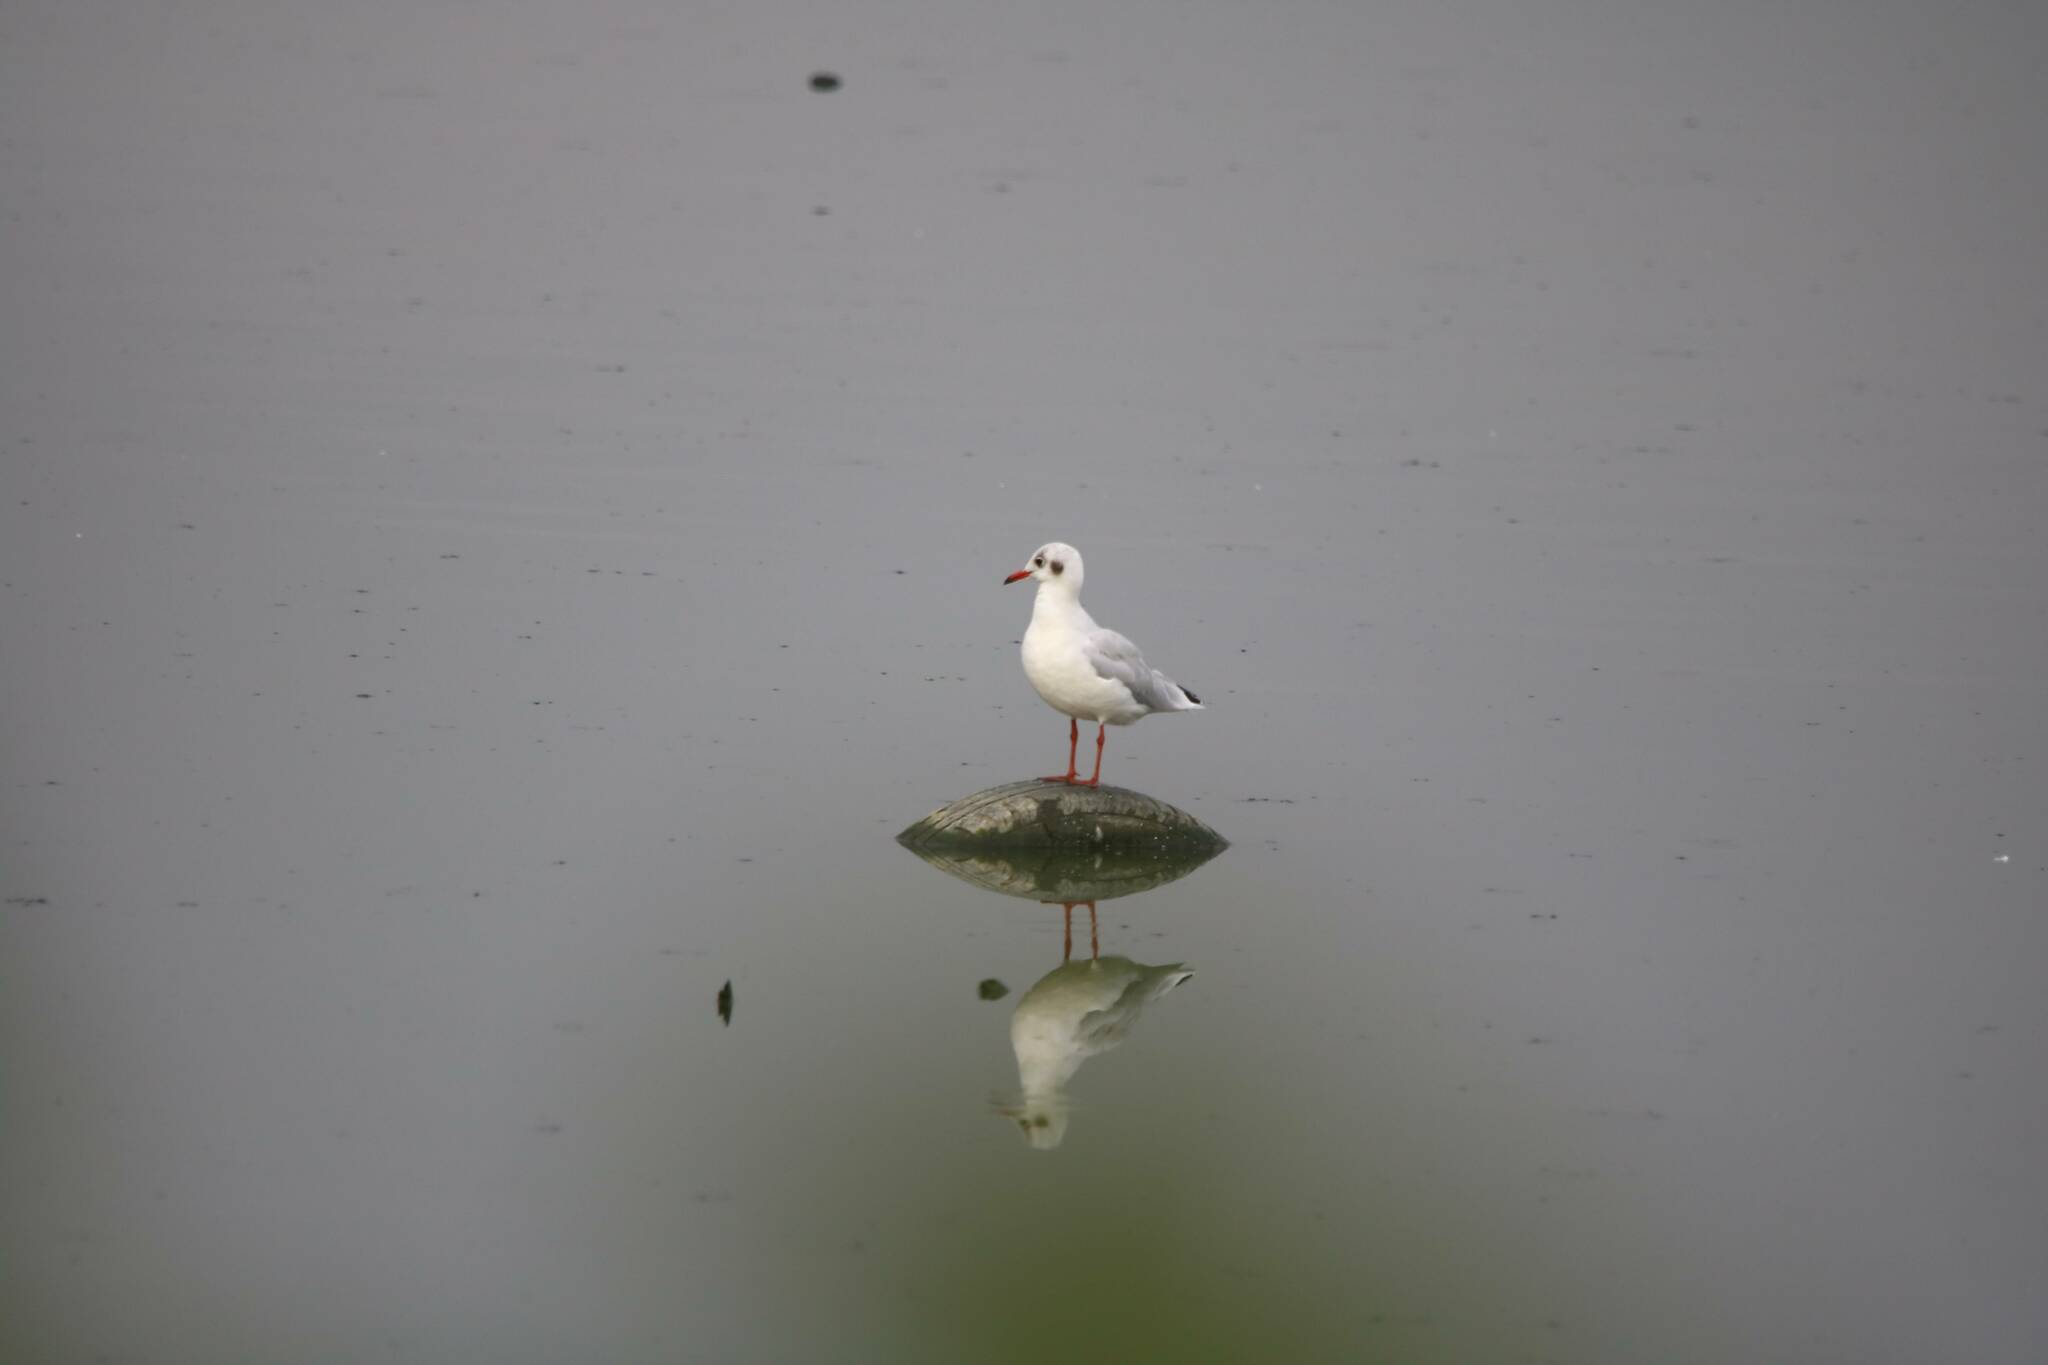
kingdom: Animalia
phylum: Chordata
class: Aves
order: Charadriiformes
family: Laridae
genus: Chroicocephalus
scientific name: Chroicocephalus ridibundus
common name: Black-headed gull
